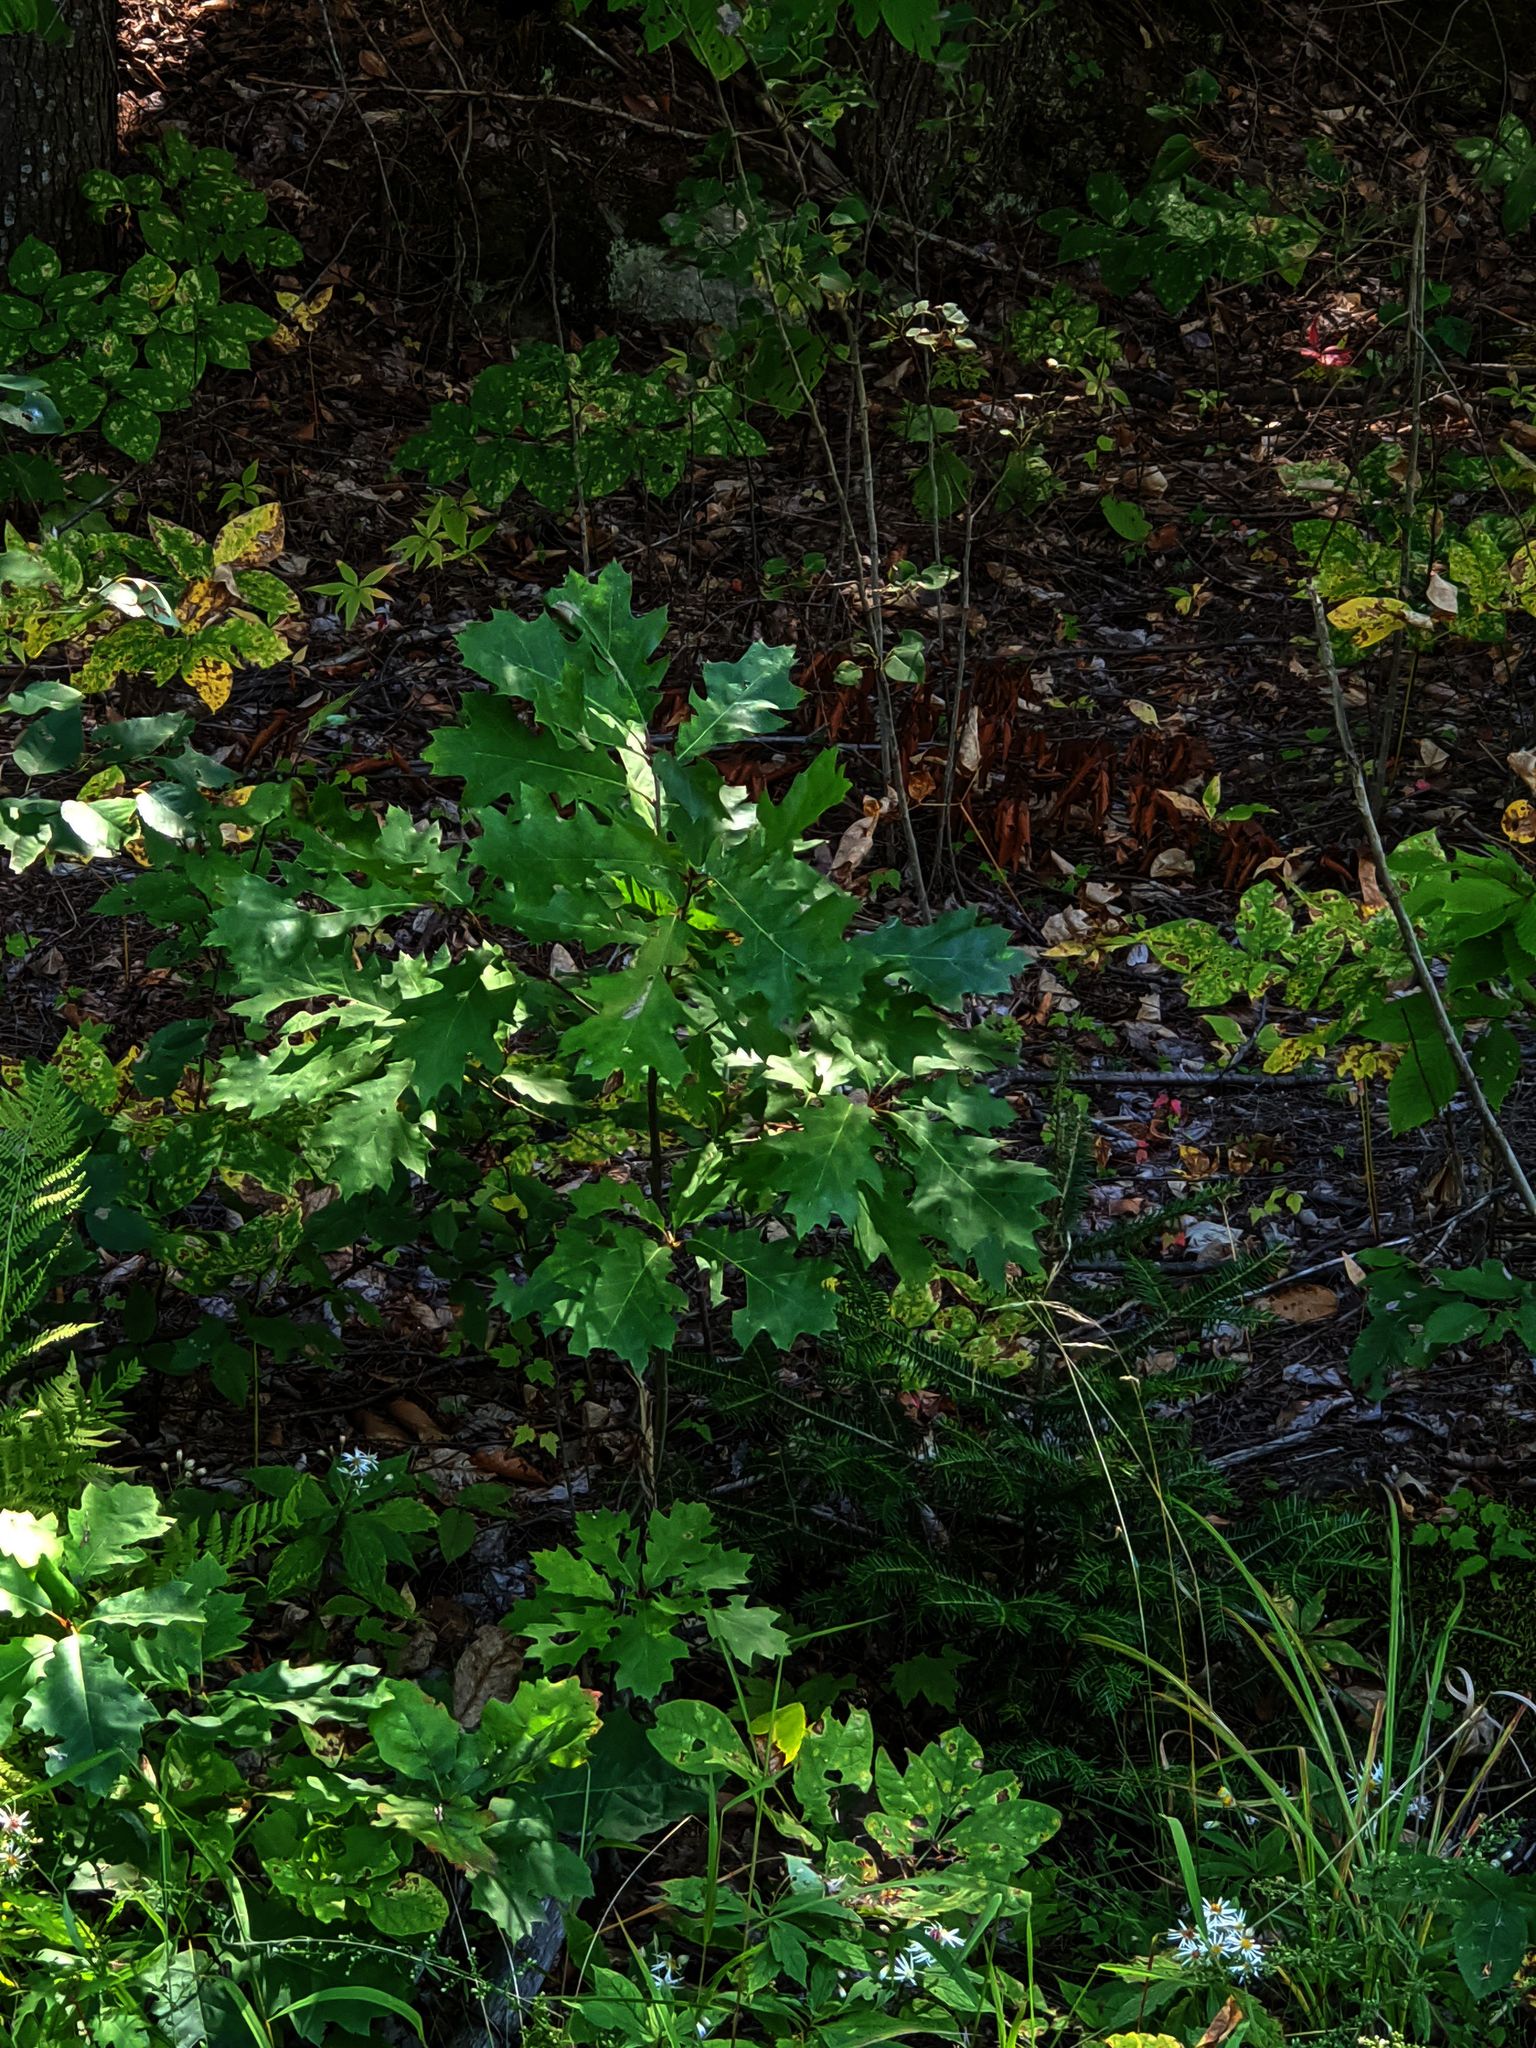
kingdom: Plantae
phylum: Tracheophyta
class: Magnoliopsida
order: Fagales
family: Fagaceae
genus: Quercus
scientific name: Quercus rubra
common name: Red oak
